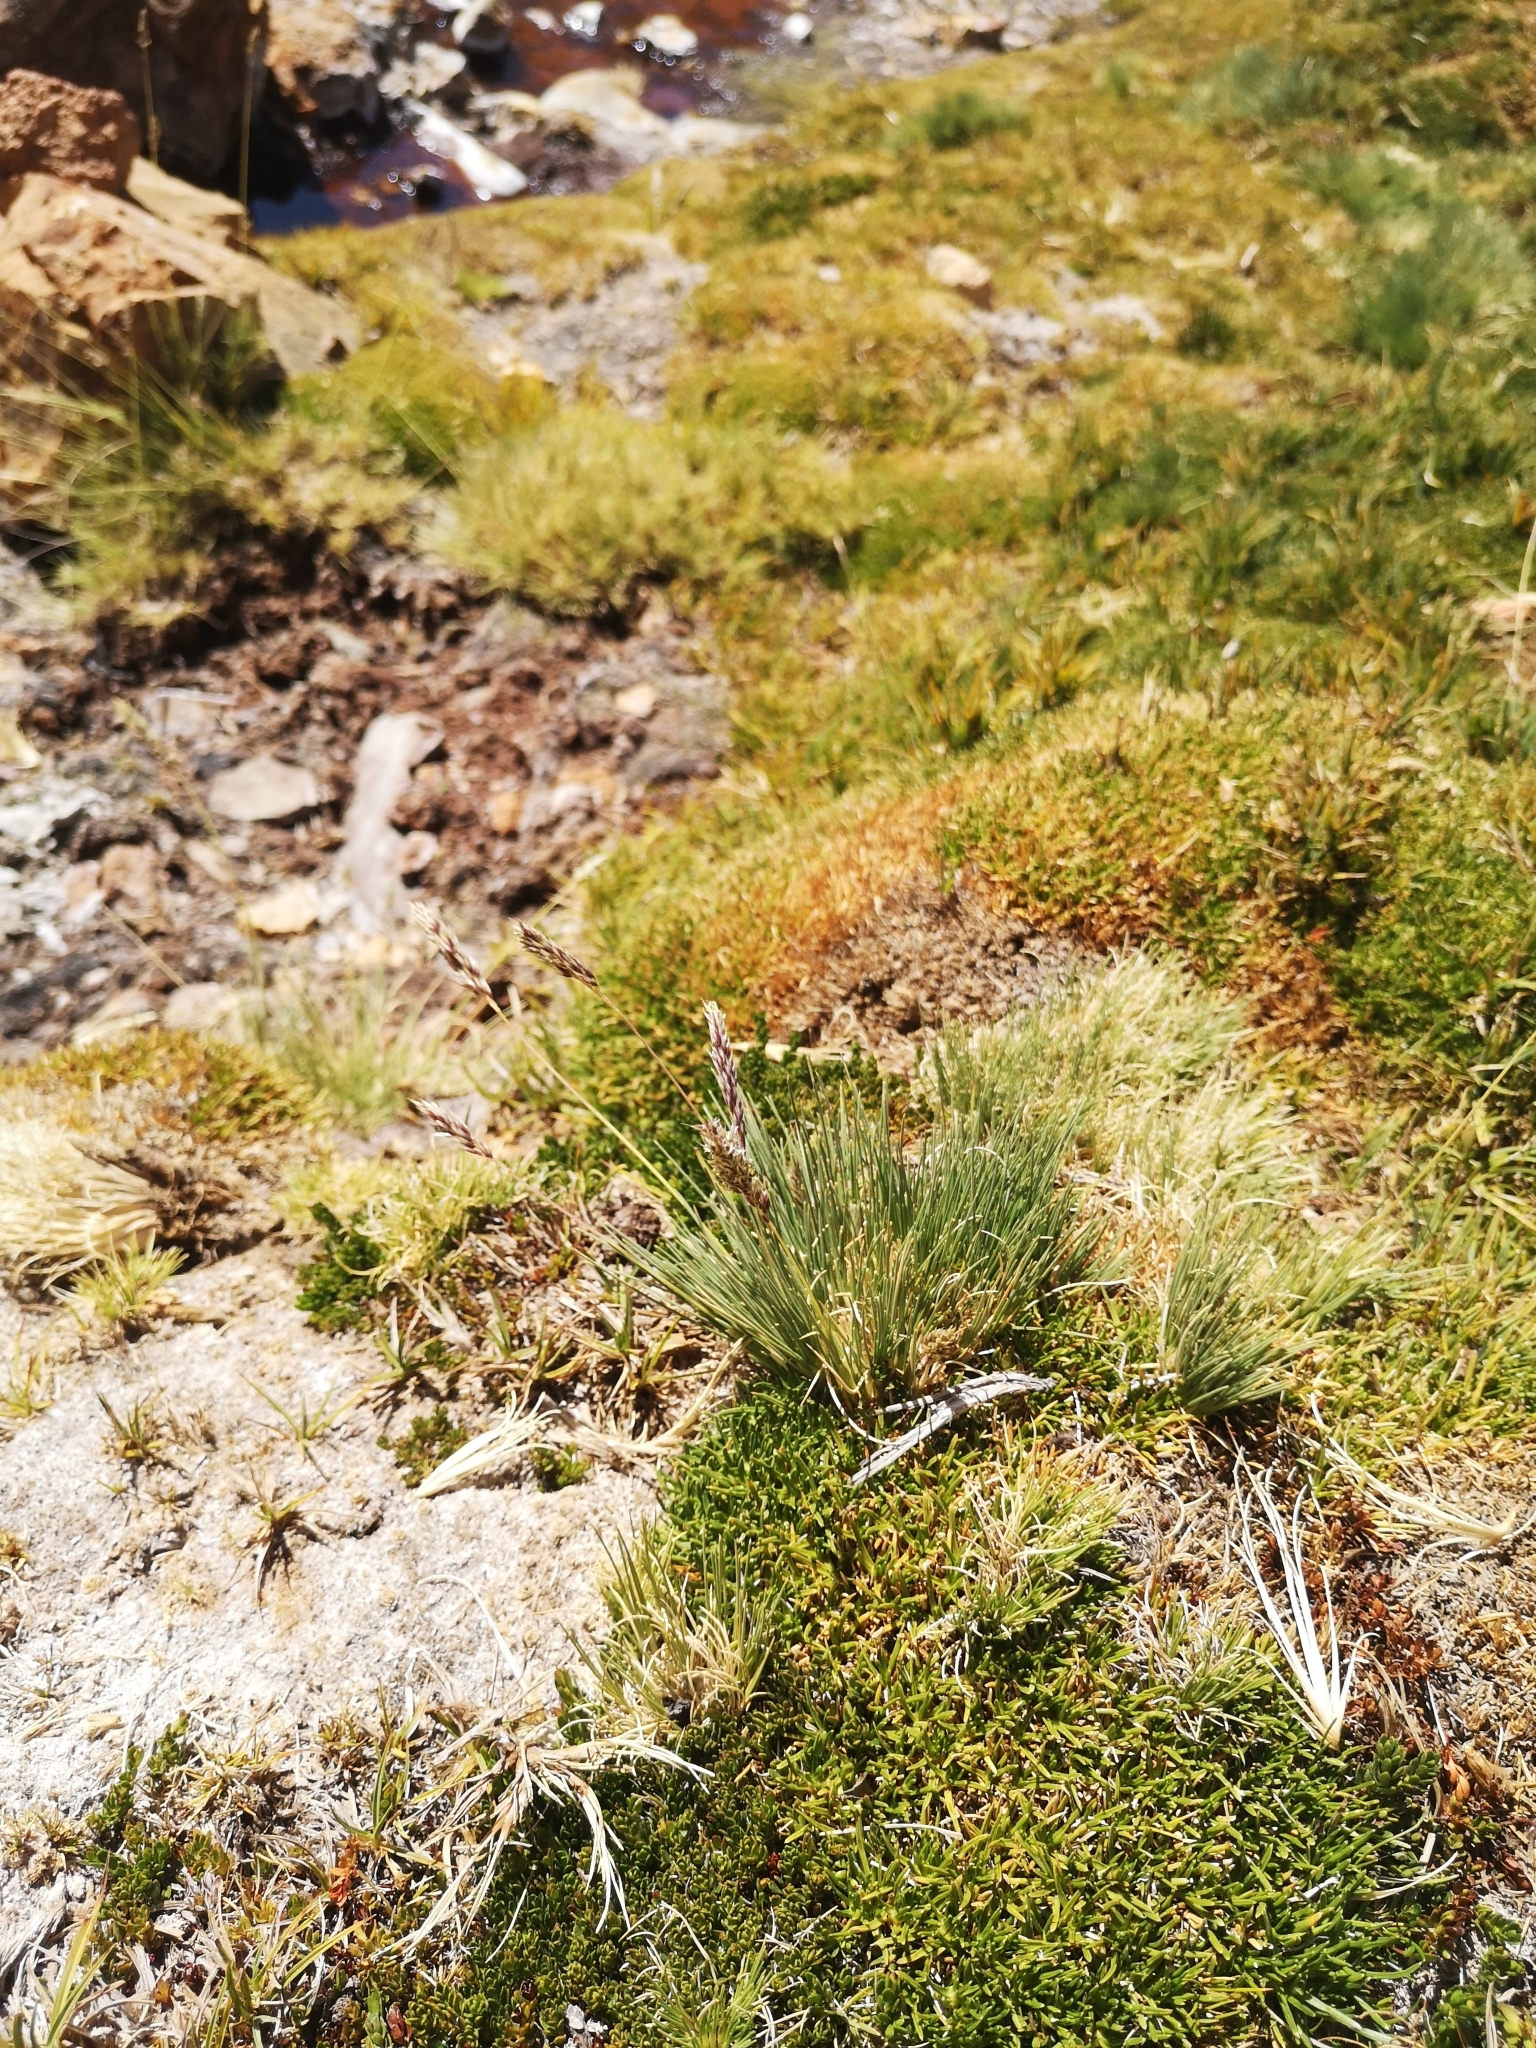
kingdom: Plantae
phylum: Tracheophyta
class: Liliopsida
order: Poales
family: Poaceae
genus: Cinnagrostis
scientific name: Cinnagrostis velutina
